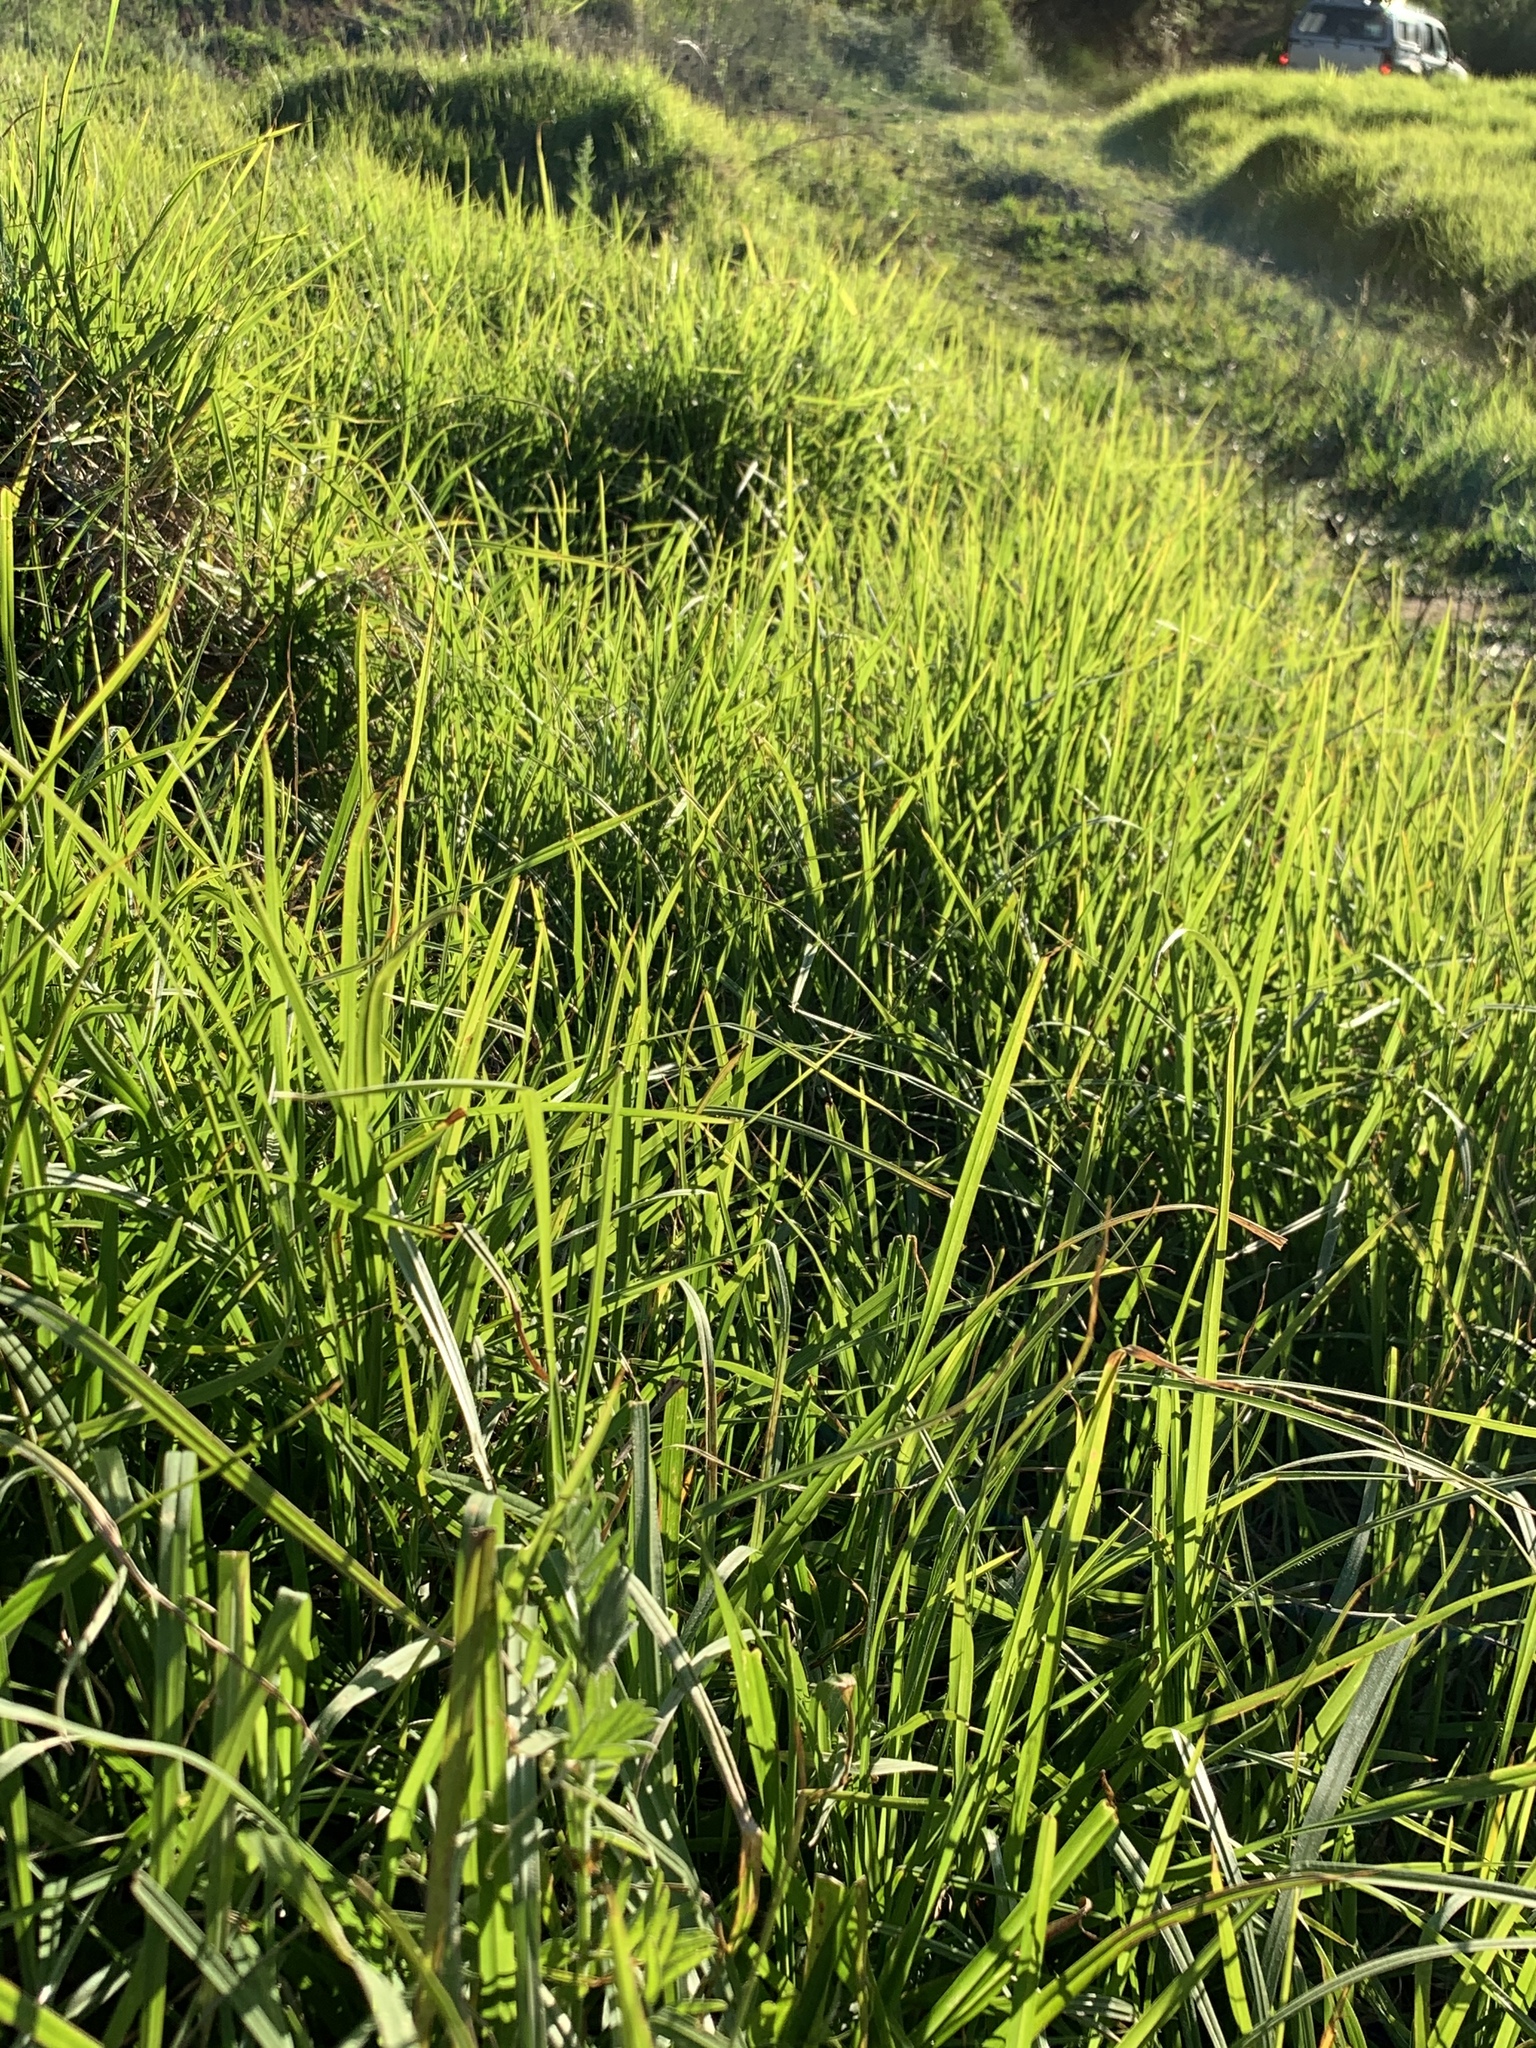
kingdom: Plantae
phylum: Tracheophyta
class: Liliopsida
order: Poales
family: Poaceae
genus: Cenchrus
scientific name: Cenchrus clandestinus
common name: Kikuyugrass
